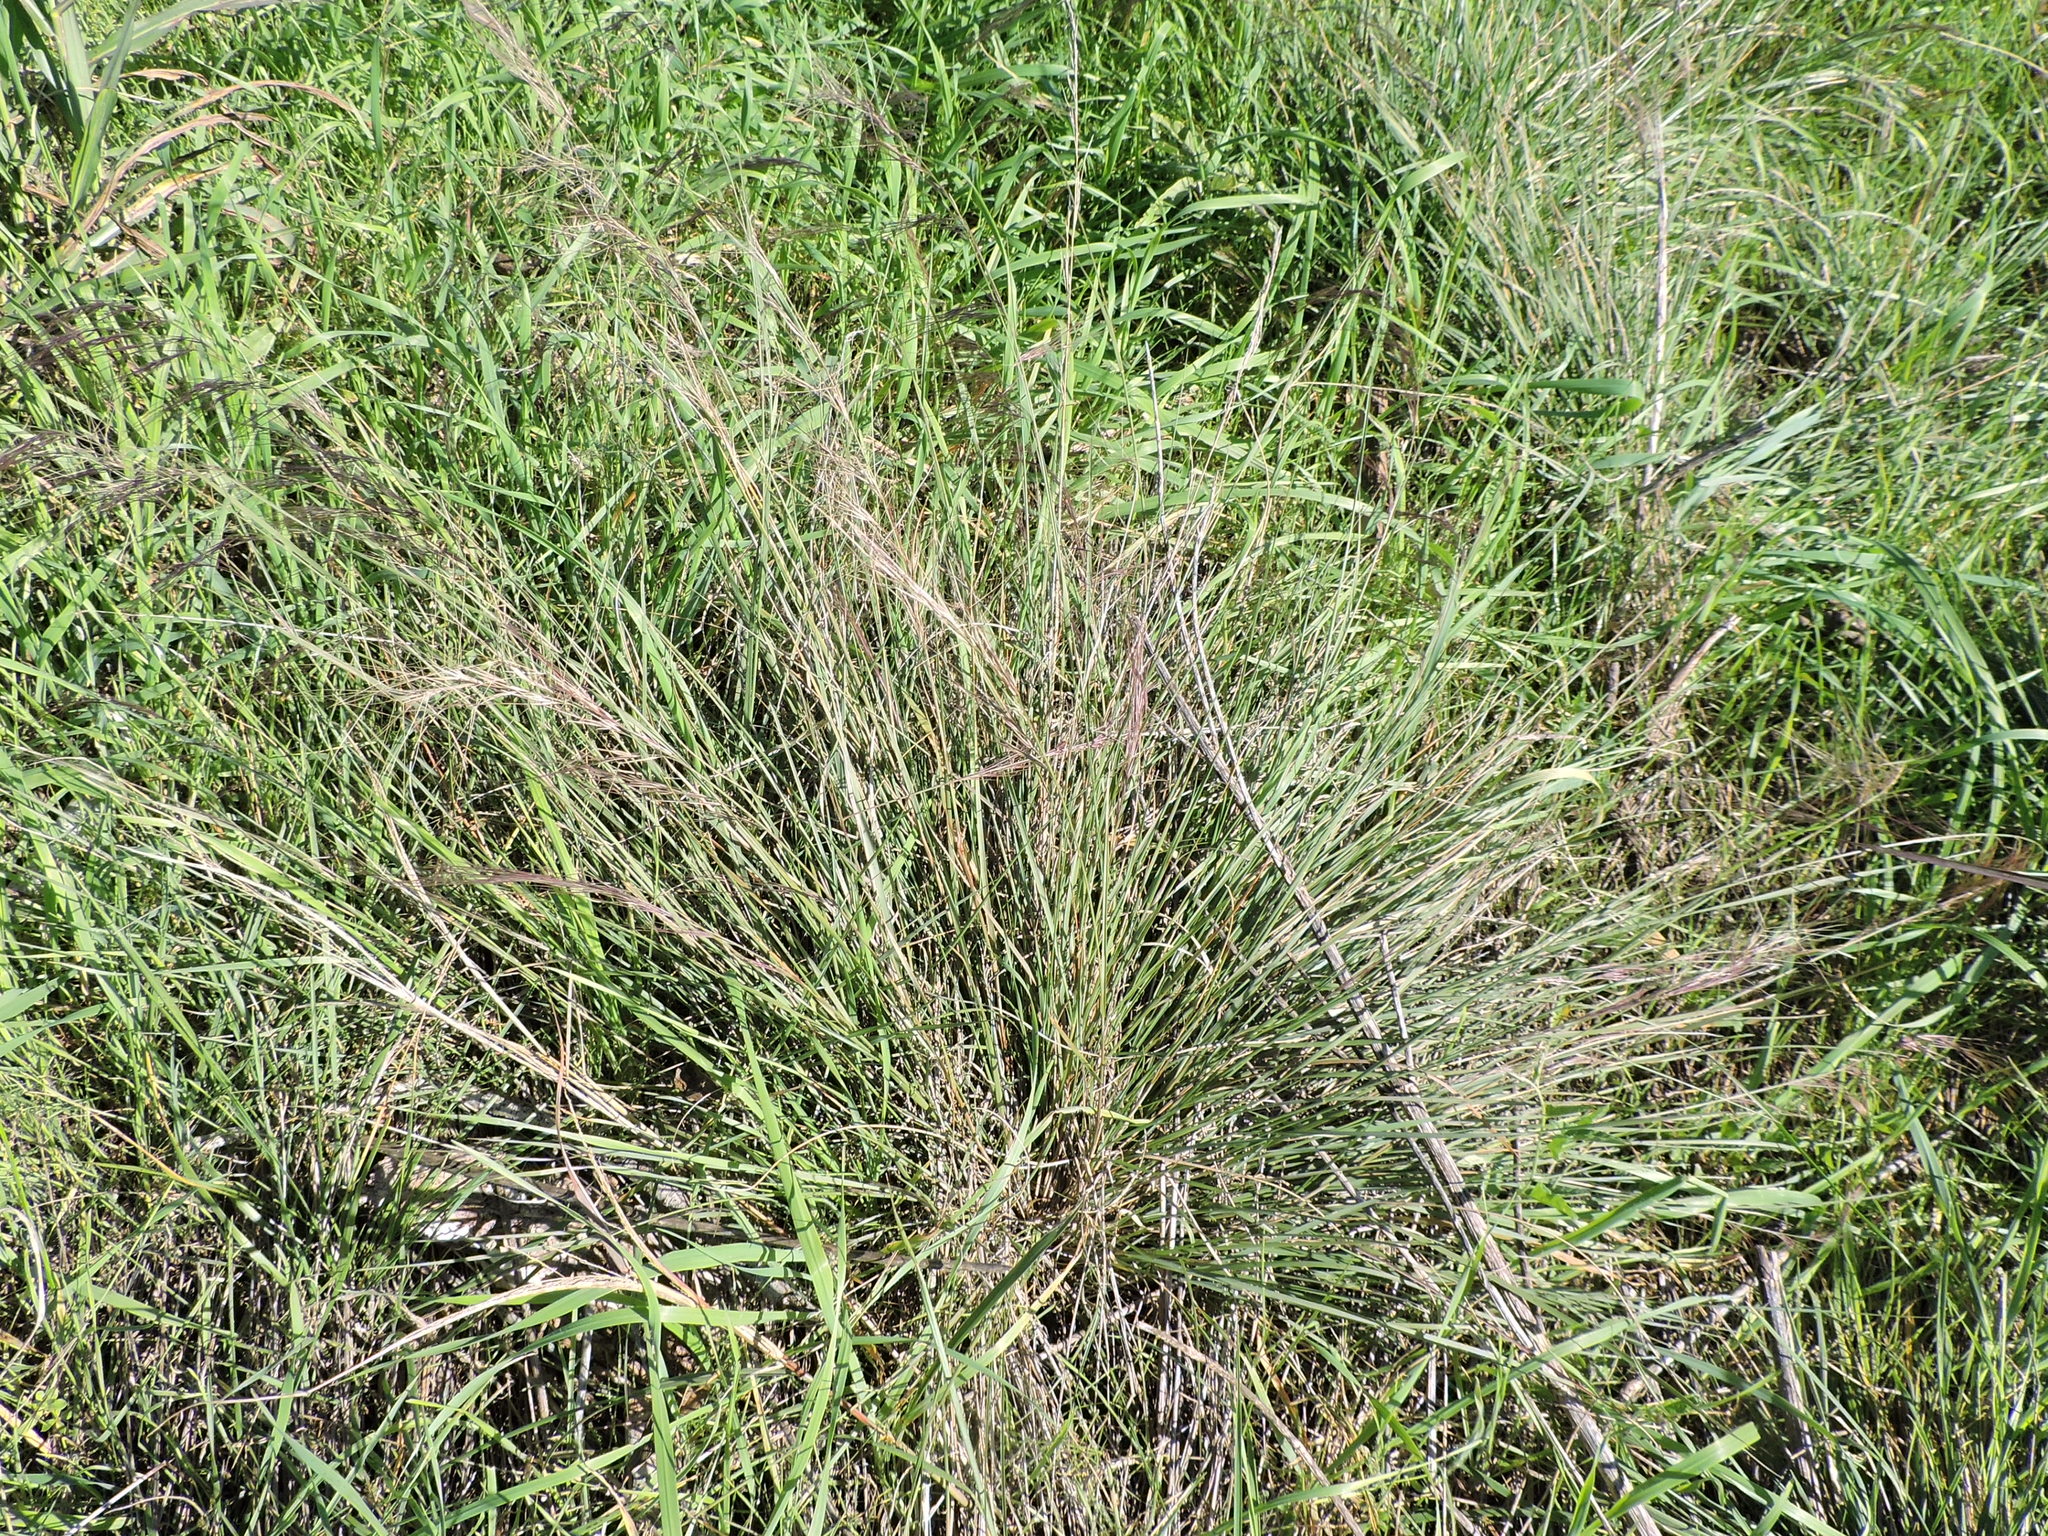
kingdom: Plantae
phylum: Tracheophyta
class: Liliopsida
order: Poales
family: Poaceae
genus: Aristida
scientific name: Aristida purpurea
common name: Purple threeawn
